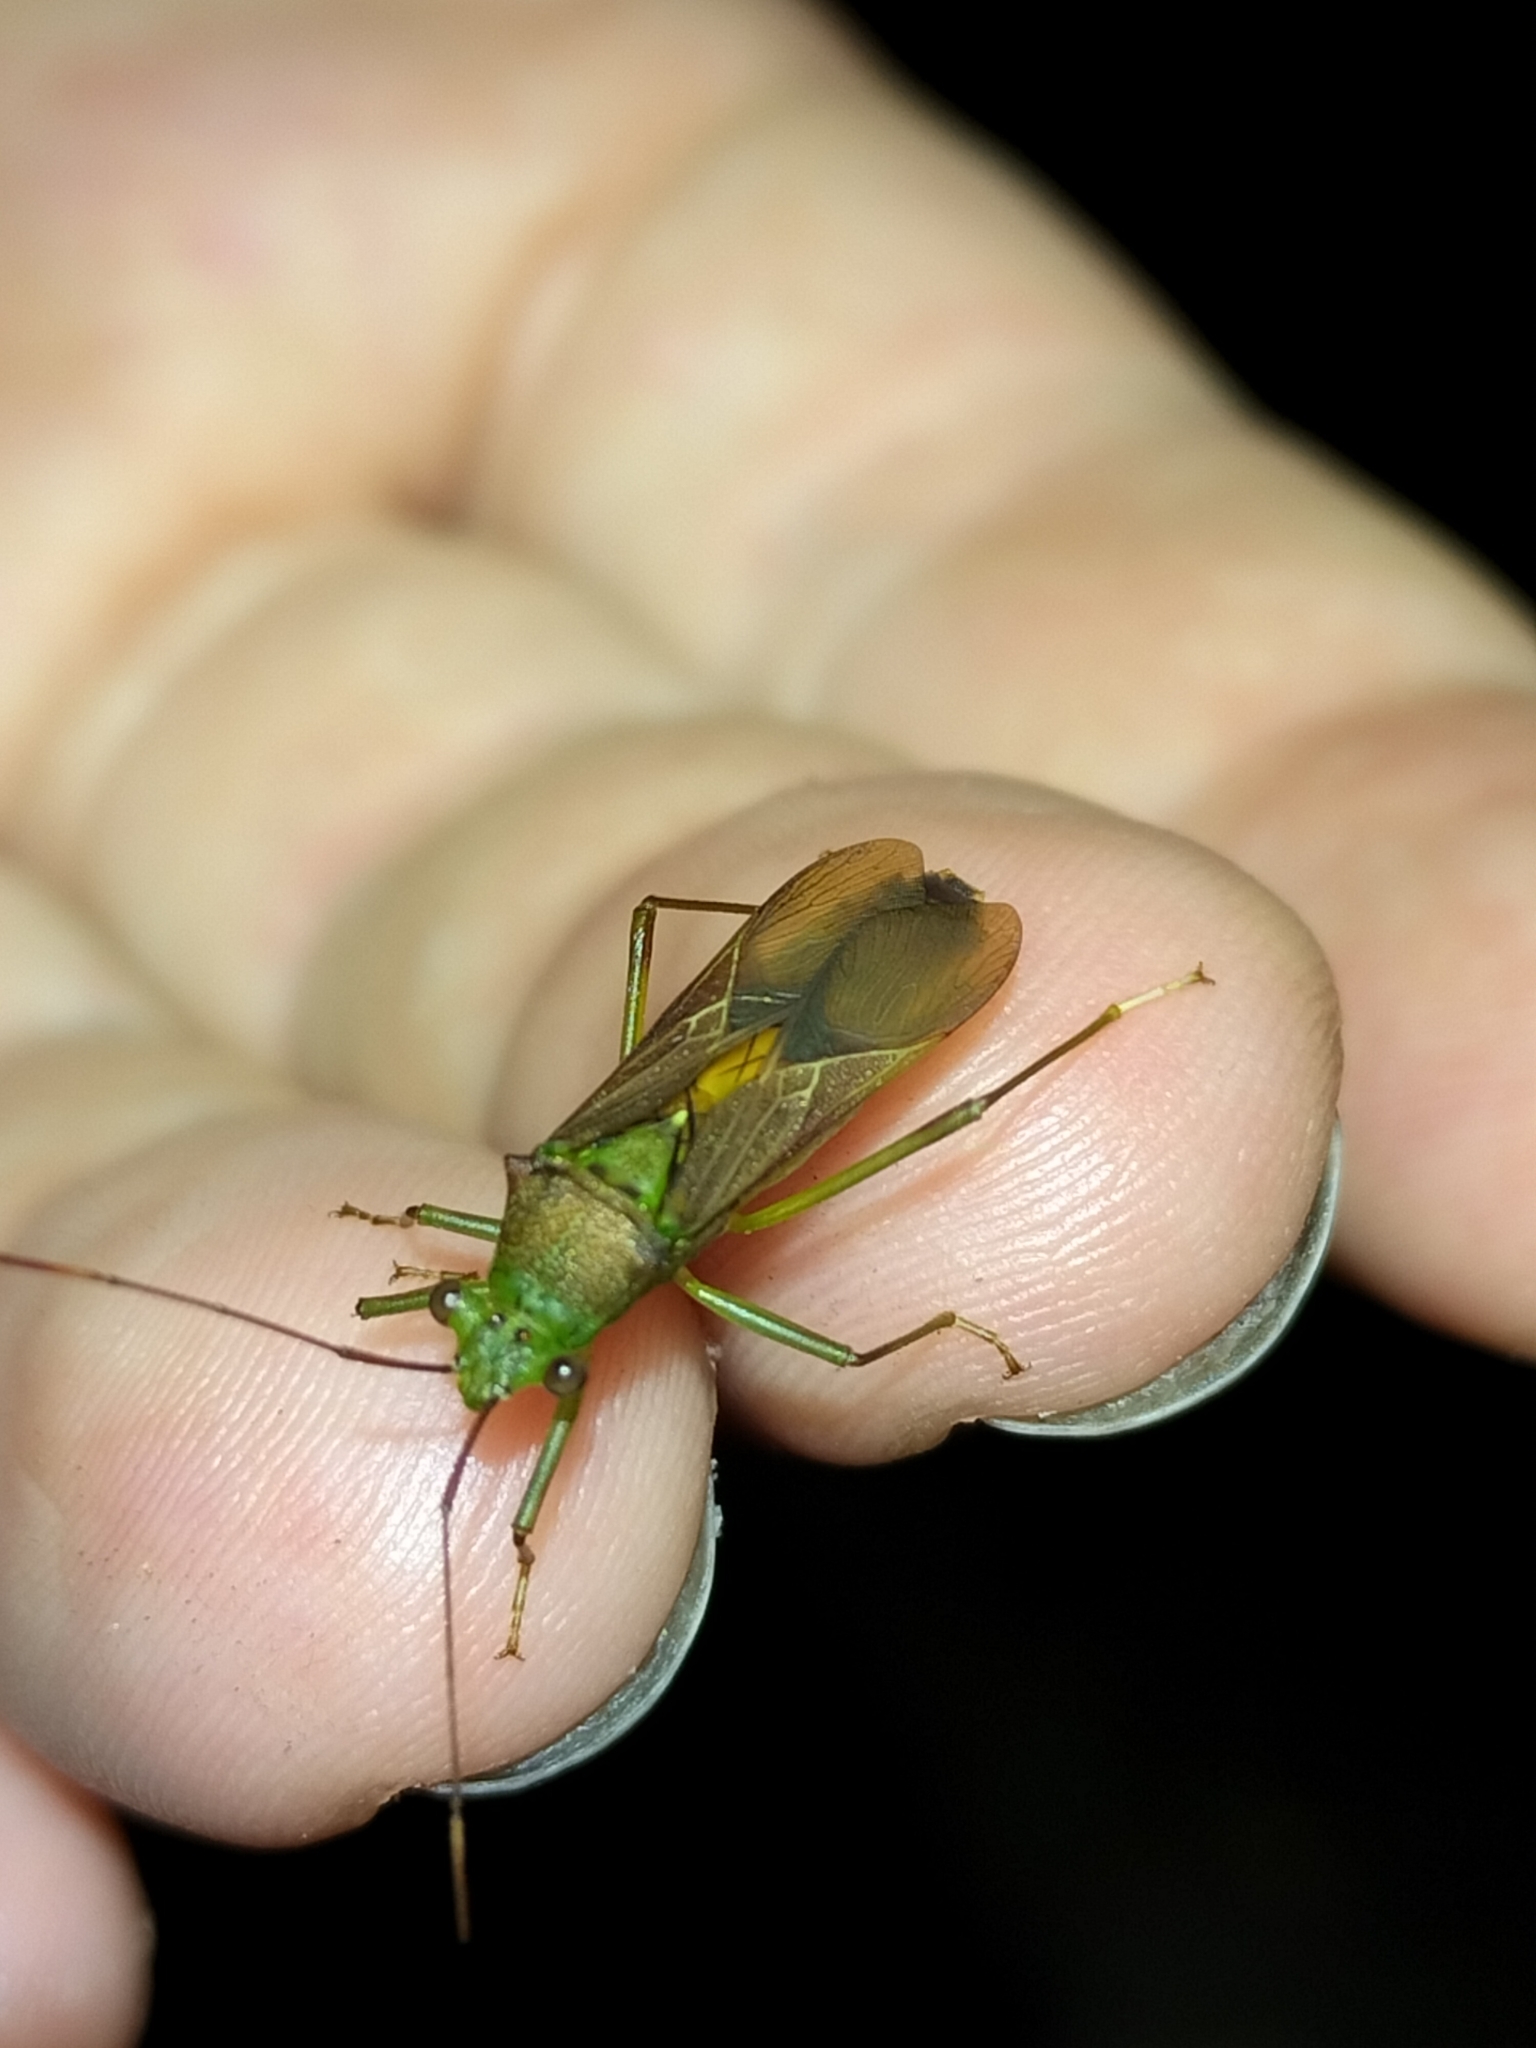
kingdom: Animalia
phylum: Arthropoda
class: Insecta
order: Hemiptera
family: Coreidae
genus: Piramurana
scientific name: Piramurana cyclops
